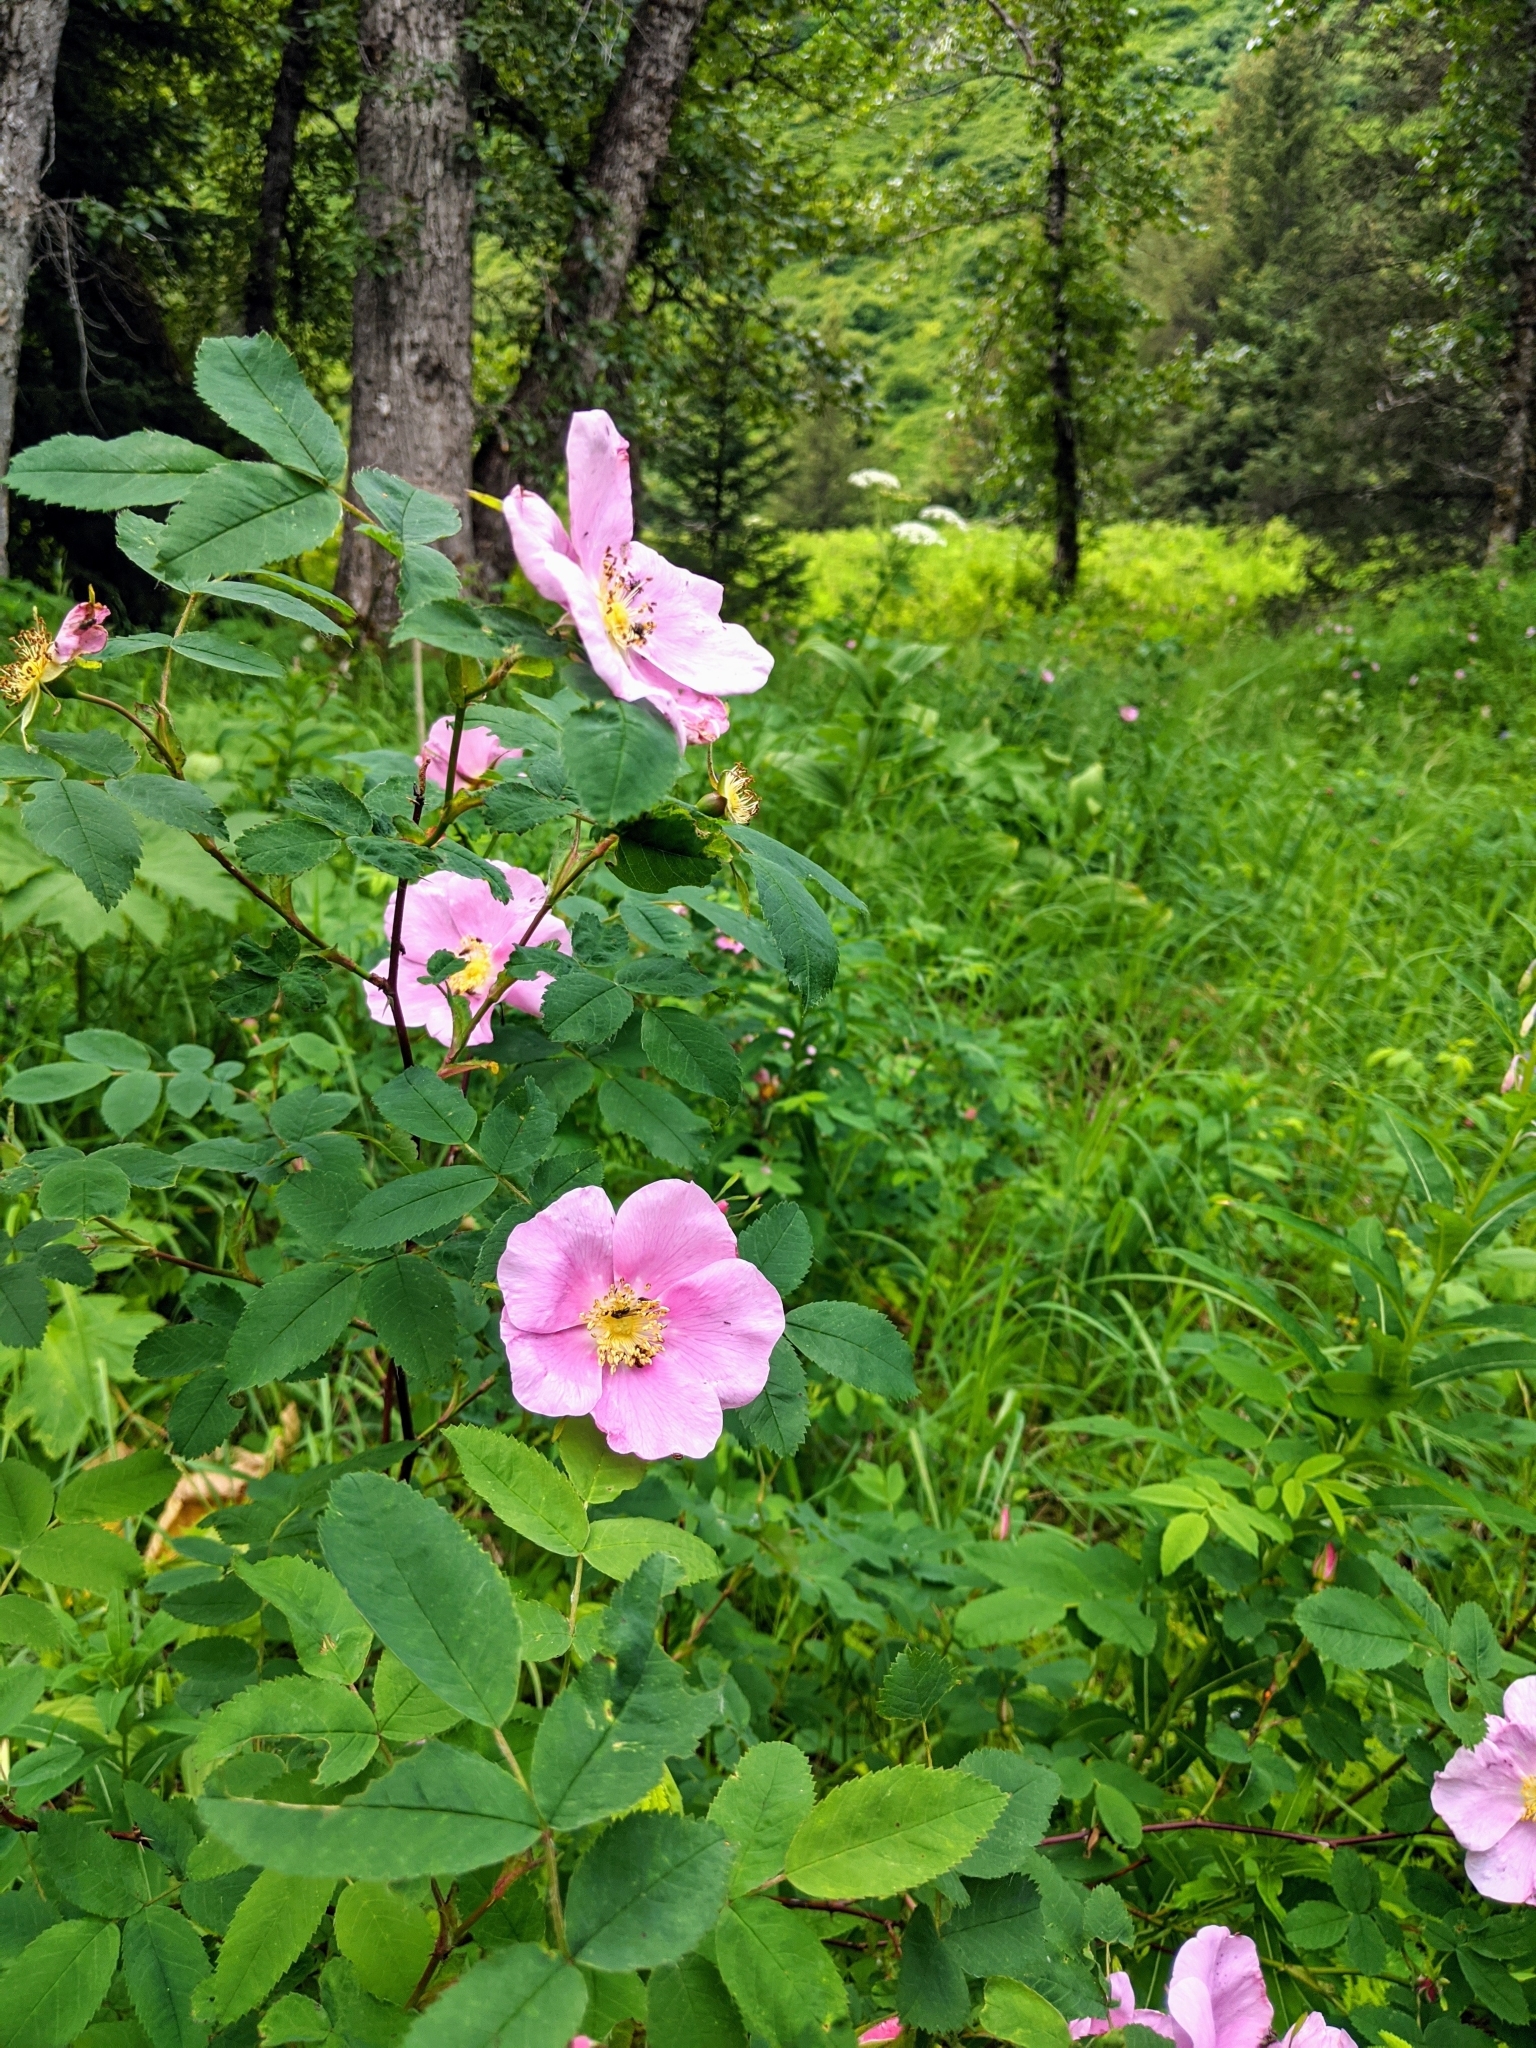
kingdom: Plantae
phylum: Tracheophyta
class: Magnoliopsida
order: Rosales
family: Rosaceae
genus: Rosa
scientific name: Rosa nutkana
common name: Nootka rose
